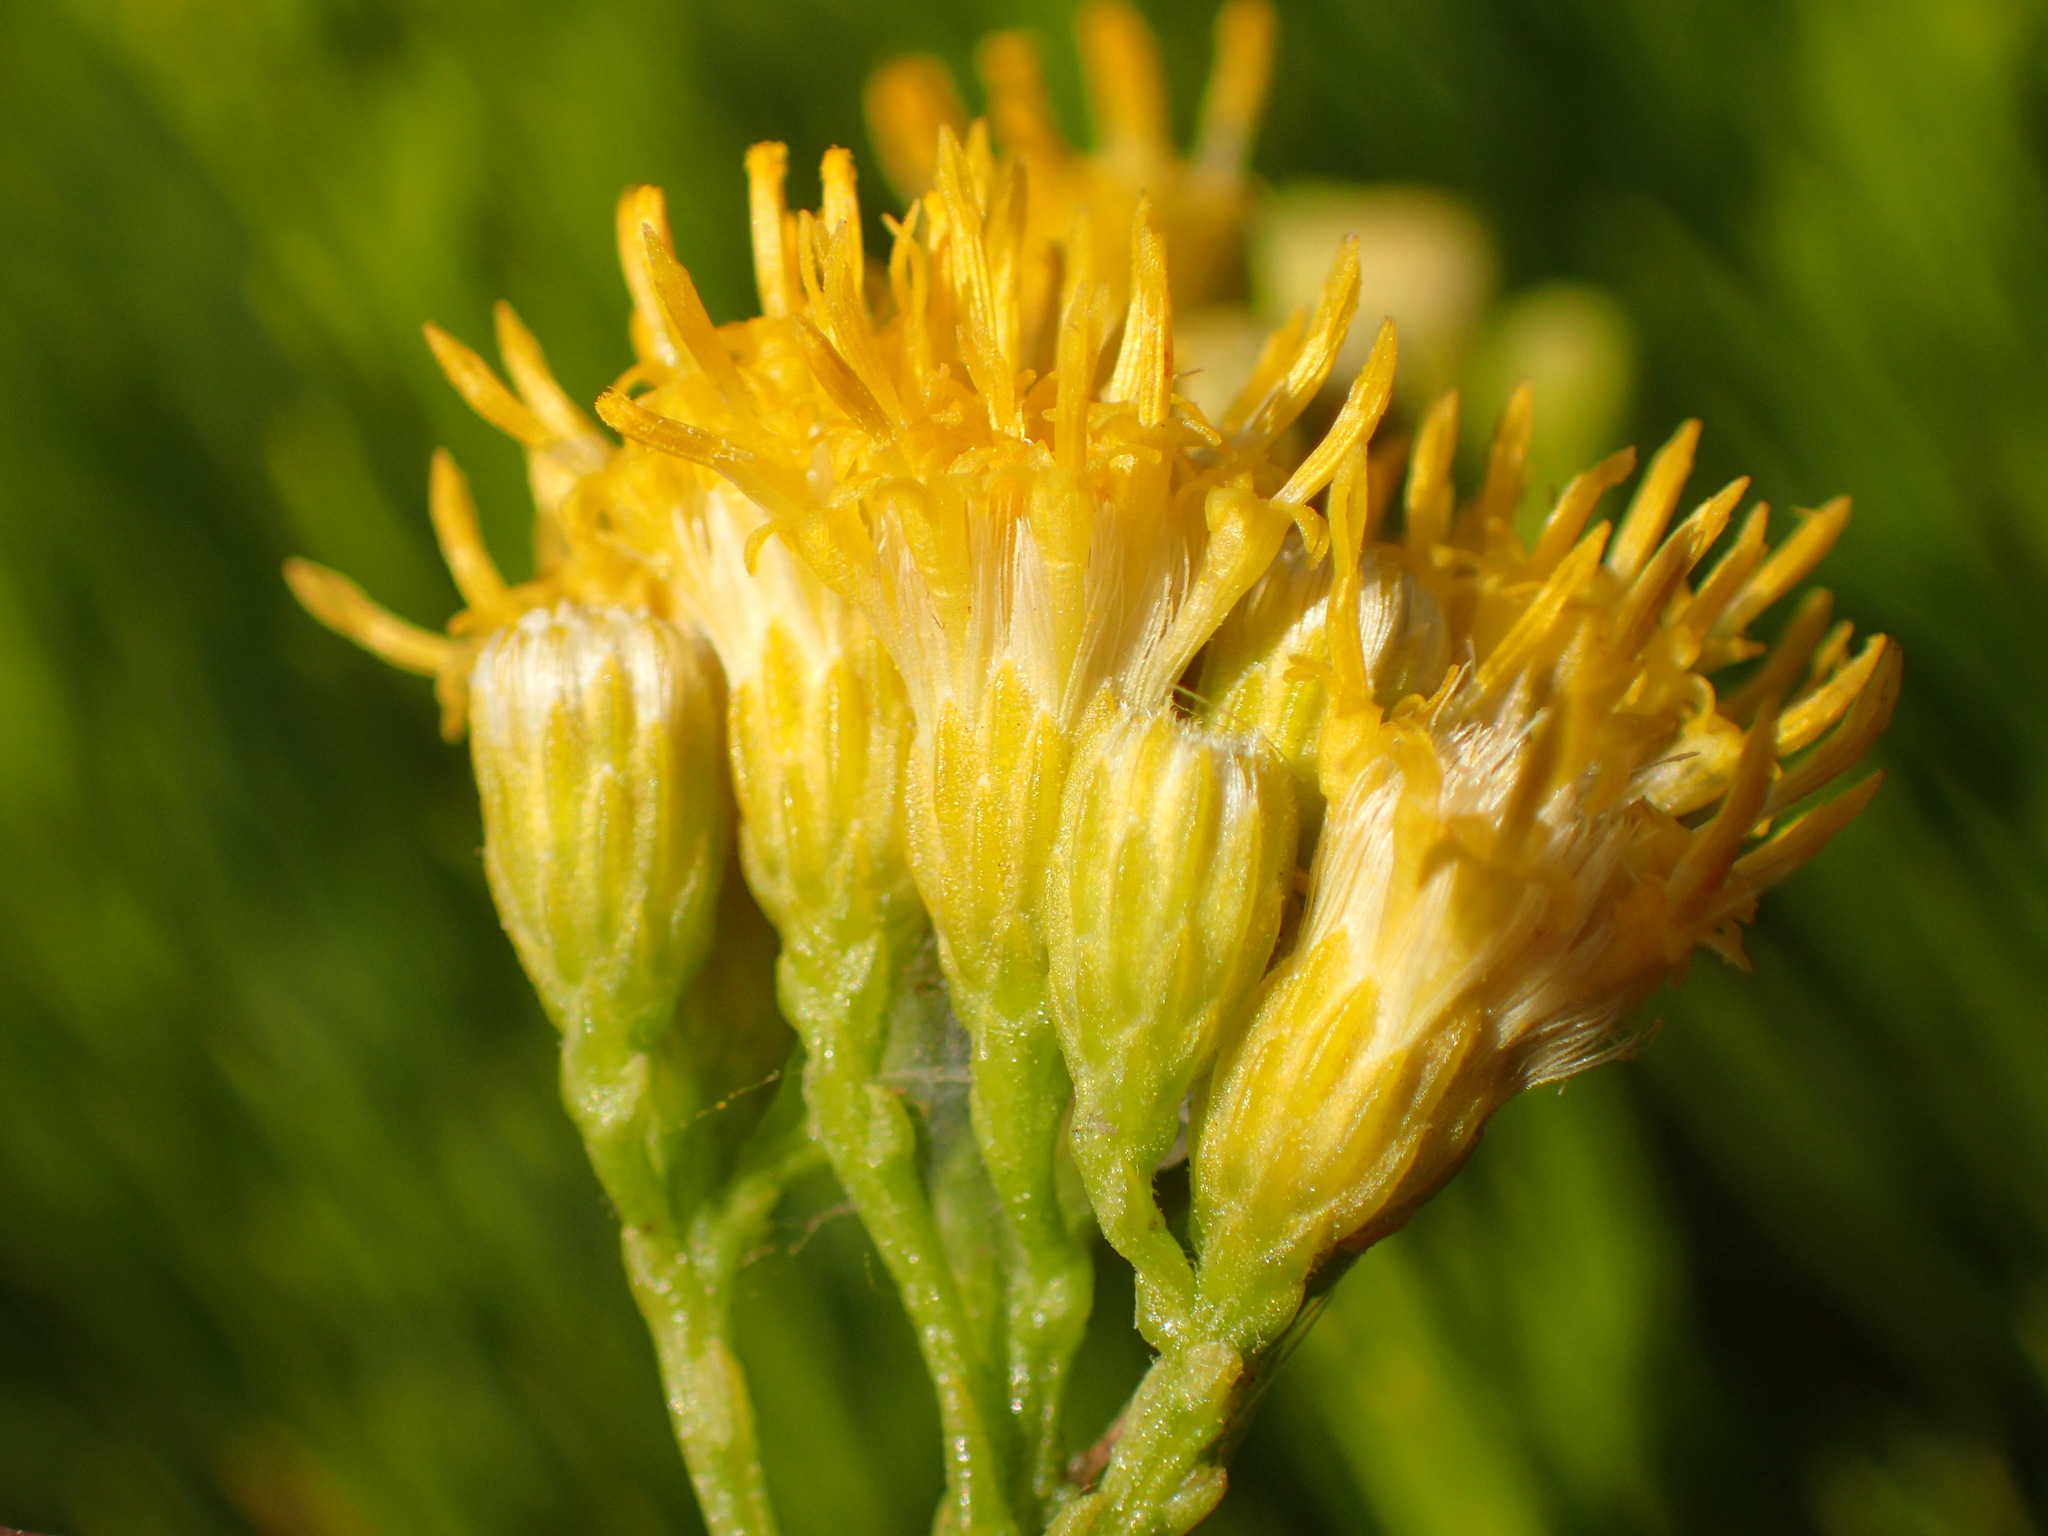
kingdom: Plantae
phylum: Tracheophyta
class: Magnoliopsida
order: Asterales
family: Asteraceae
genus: Ericameria
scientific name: Ericameria arborescens
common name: Goldenfleece
